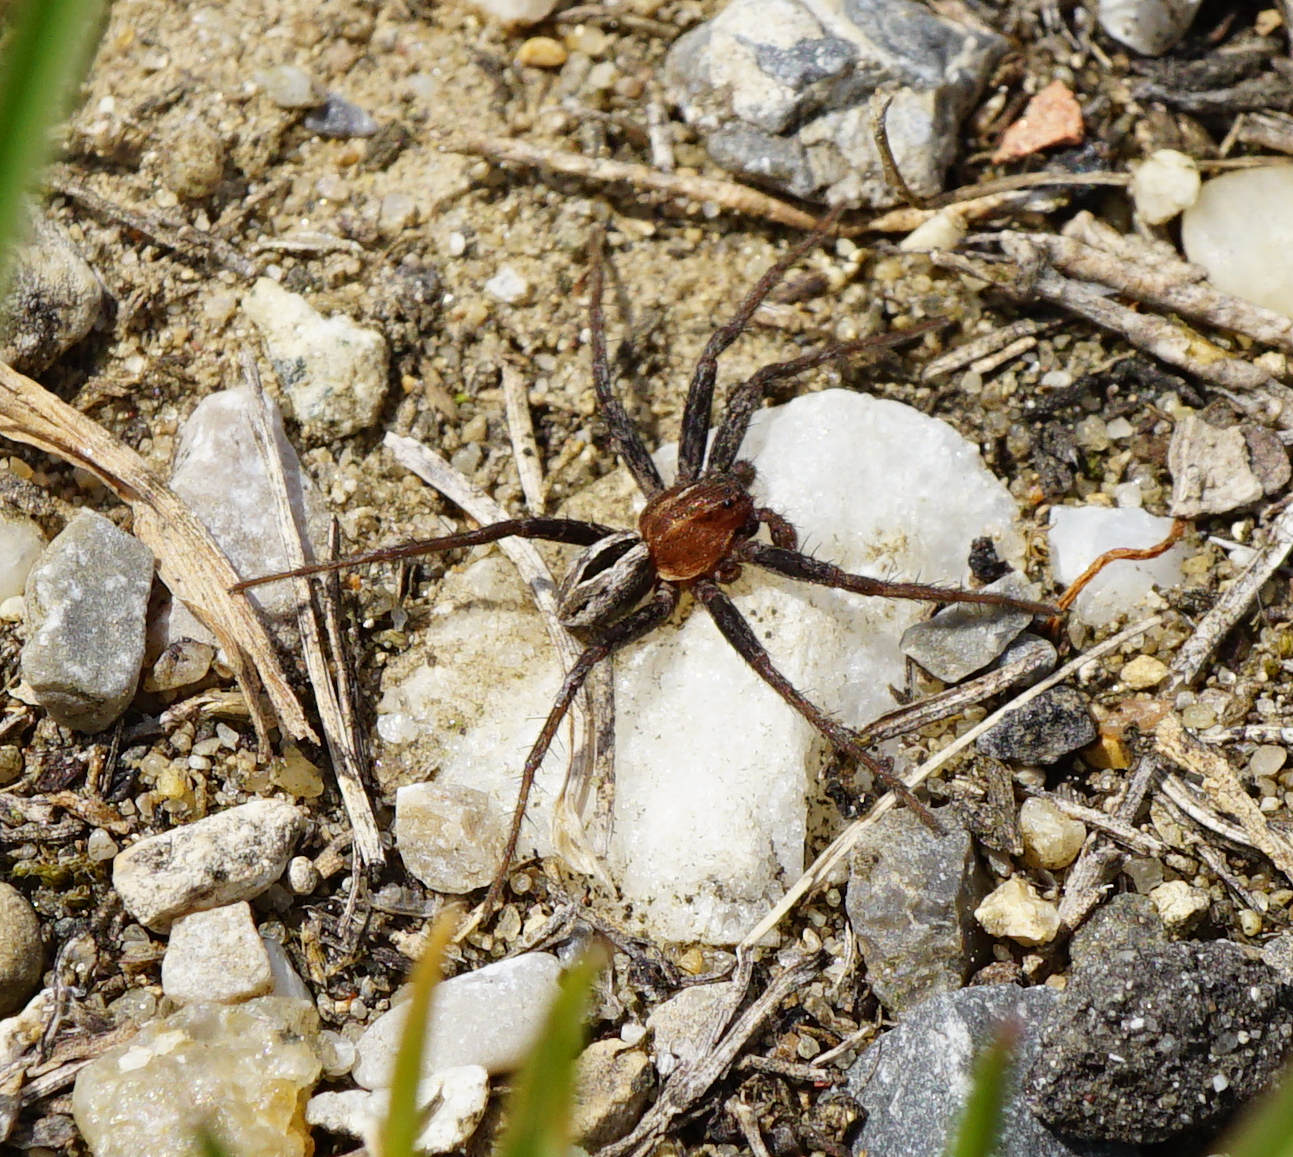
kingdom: Animalia
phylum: Arthropoda
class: Arachnida
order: Araneae
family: Philodromidae
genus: Thanatus
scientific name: Thanatus arenarius
